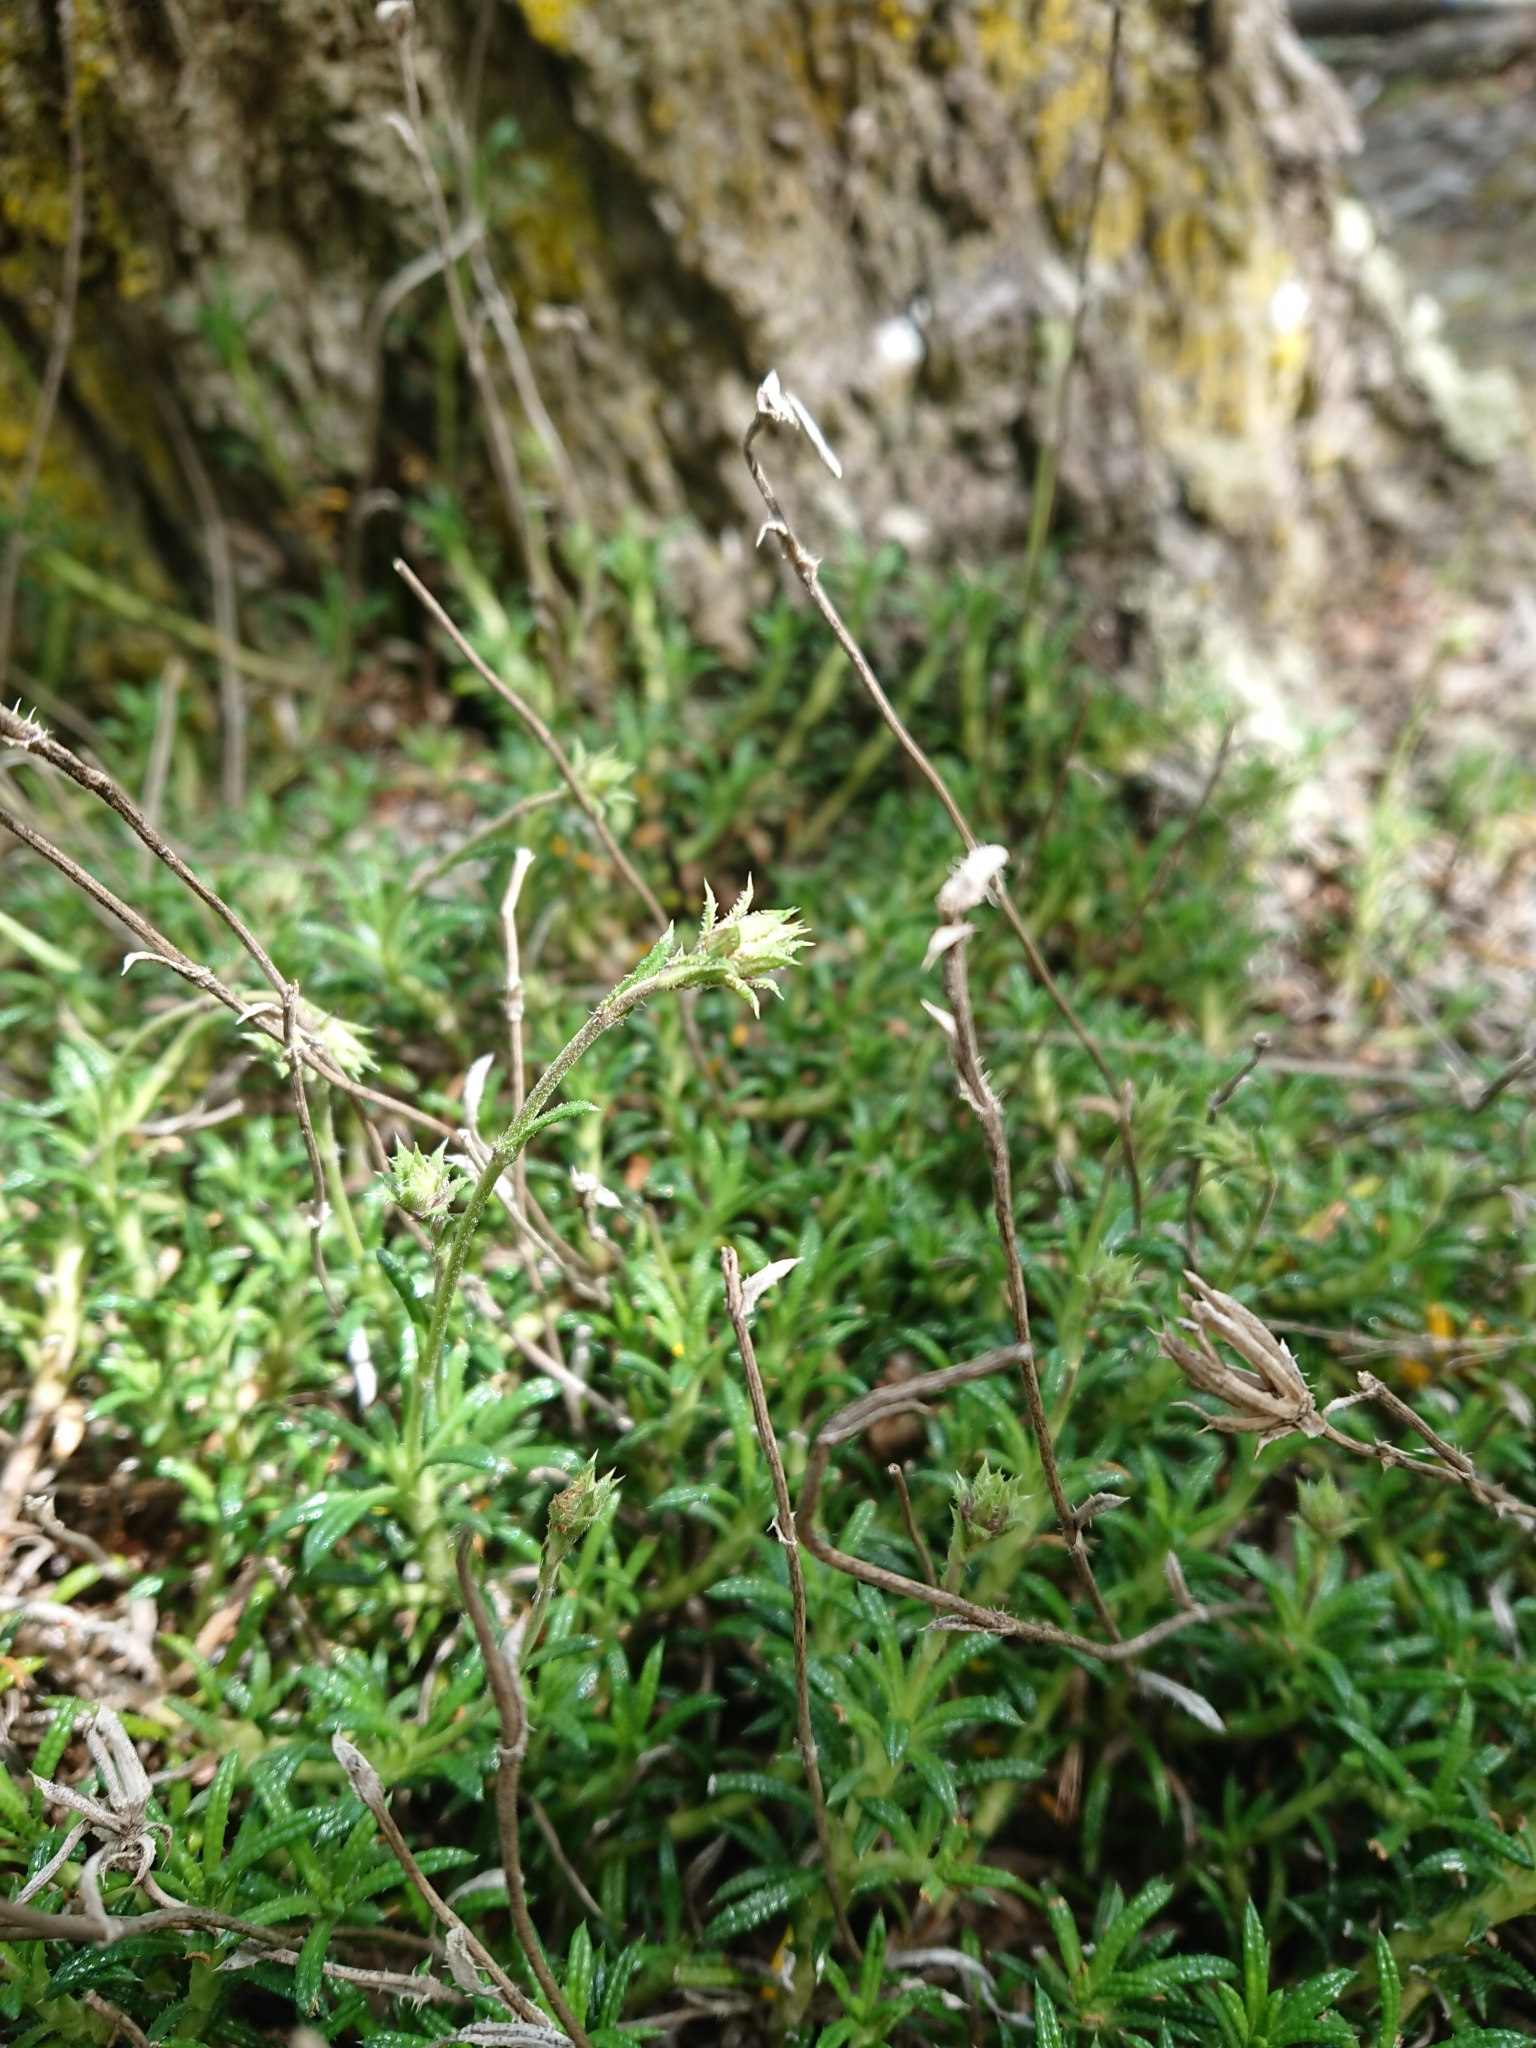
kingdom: Plantae
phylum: Tracheophyta
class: Magnoliopsida
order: Asterales
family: Asteraceae
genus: Perezia
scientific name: Perezia recurvata
